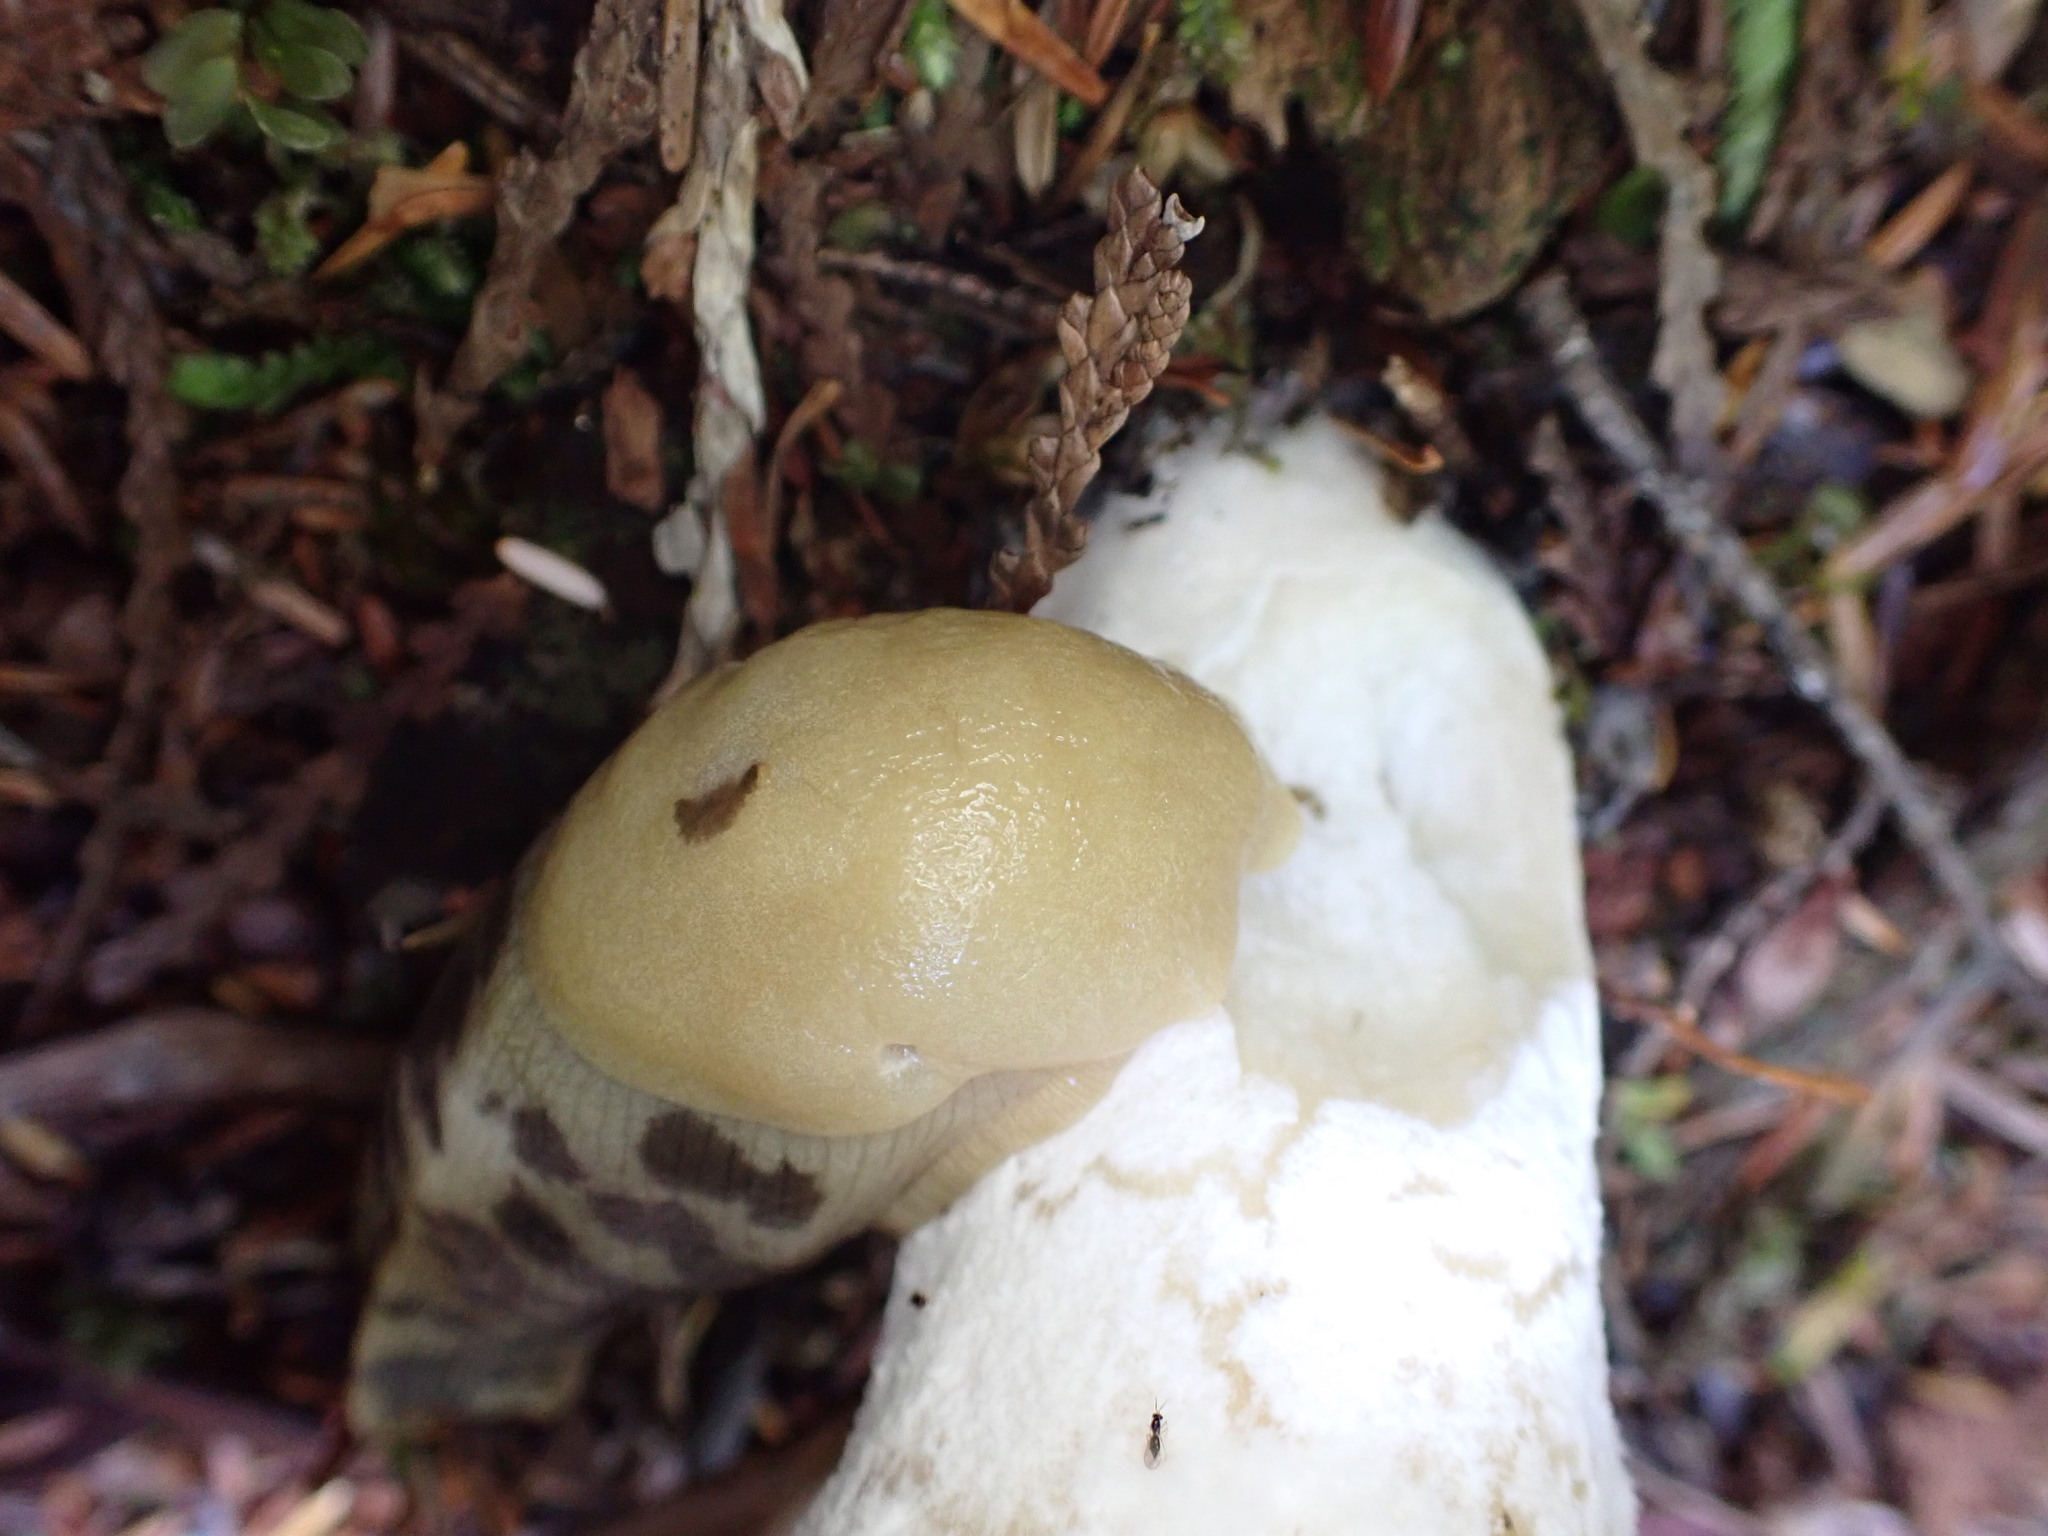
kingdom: Animalia
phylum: Mollusca
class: Gastropoda
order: Stylommatophora
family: Ariolimacidae
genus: Ariolimax
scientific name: Ariolimax columbianus
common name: Pacific banana slug
